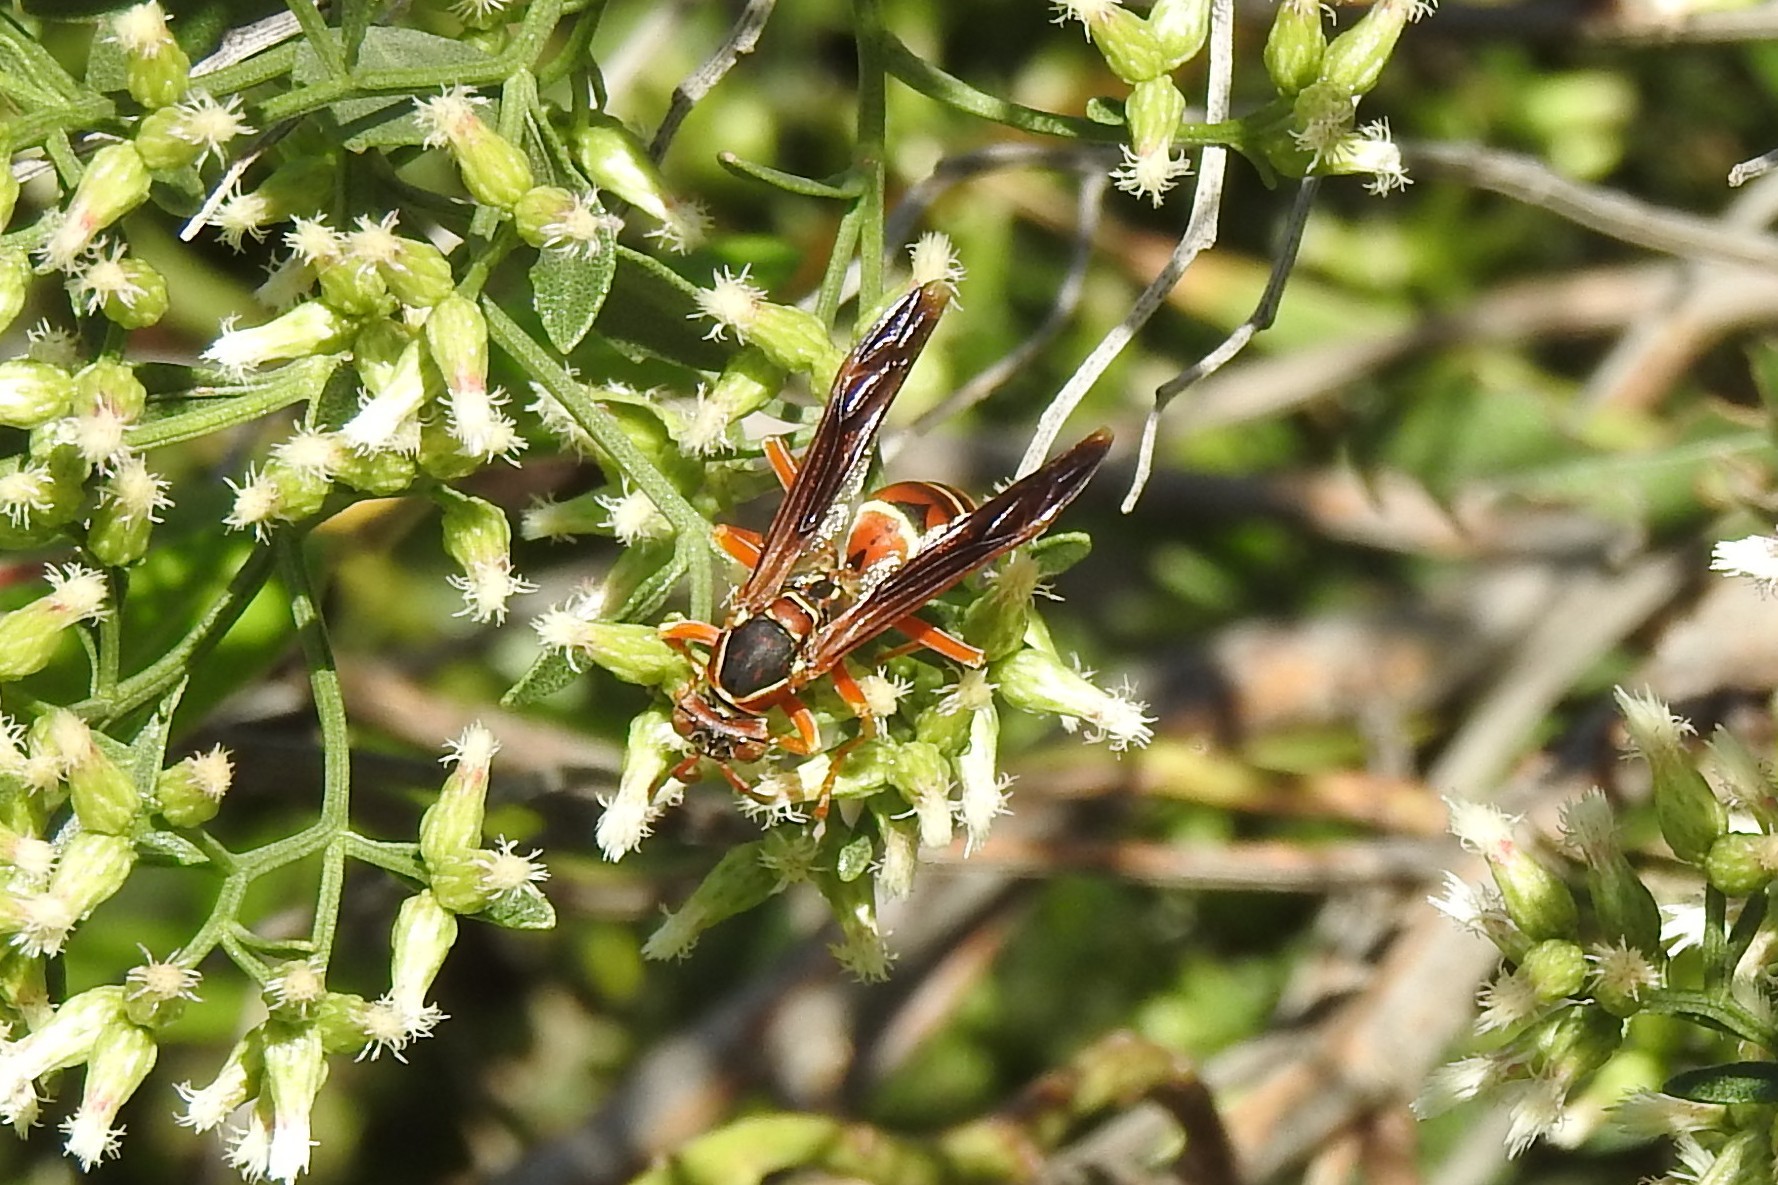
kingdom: Animalia
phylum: Arthropoda
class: Insecta
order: Hymenoptera
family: Vespidae
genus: Fuscopolistes
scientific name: Fuscopolistes
